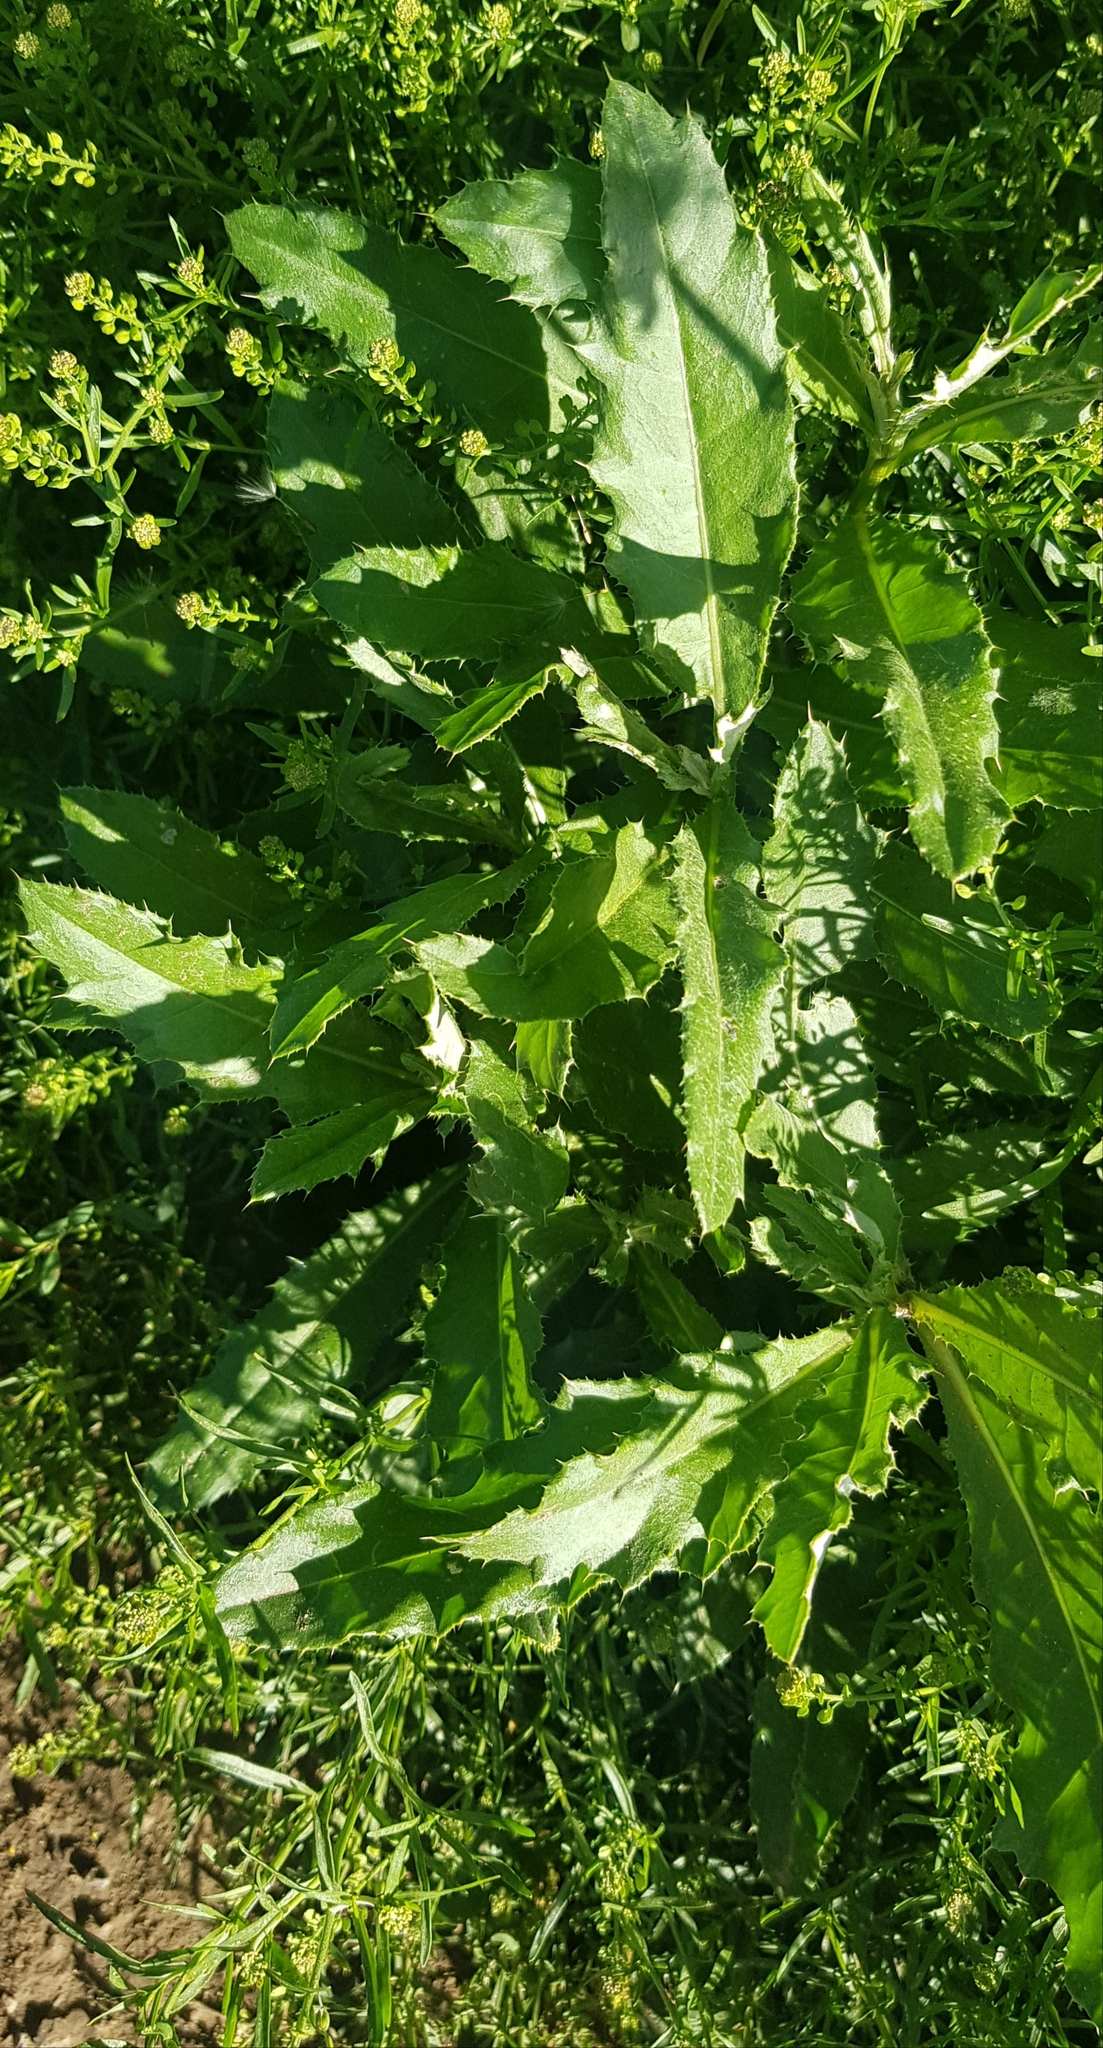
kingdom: Plantae
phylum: Tracheophyta
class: Magnoliopsida
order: Asterales
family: Asteraceae
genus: Cirsium
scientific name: Cirsium helenioides
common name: Melancholy thistle
